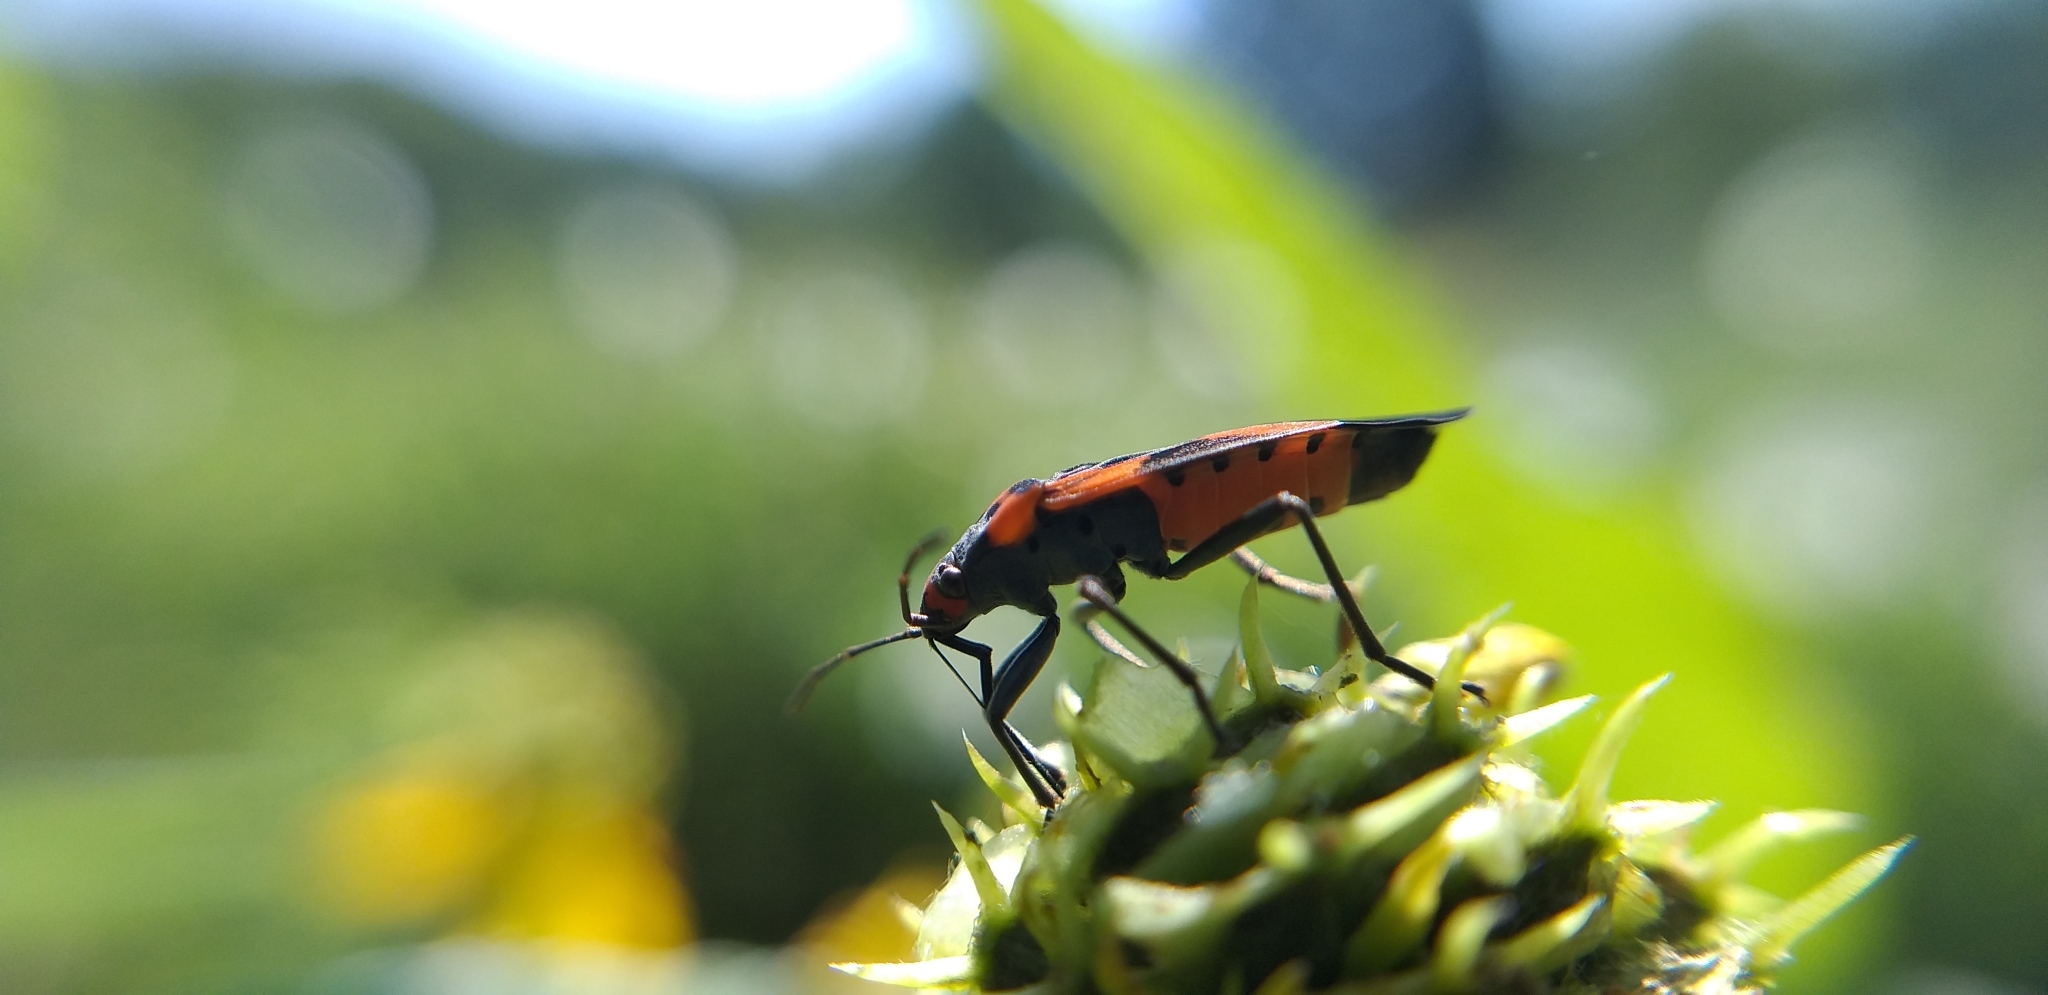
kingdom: Animalia
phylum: Arthropoda
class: Insecta
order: Hemiptera
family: Lygaeidae
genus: Lygaeus
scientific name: Lygaeus turcicus
